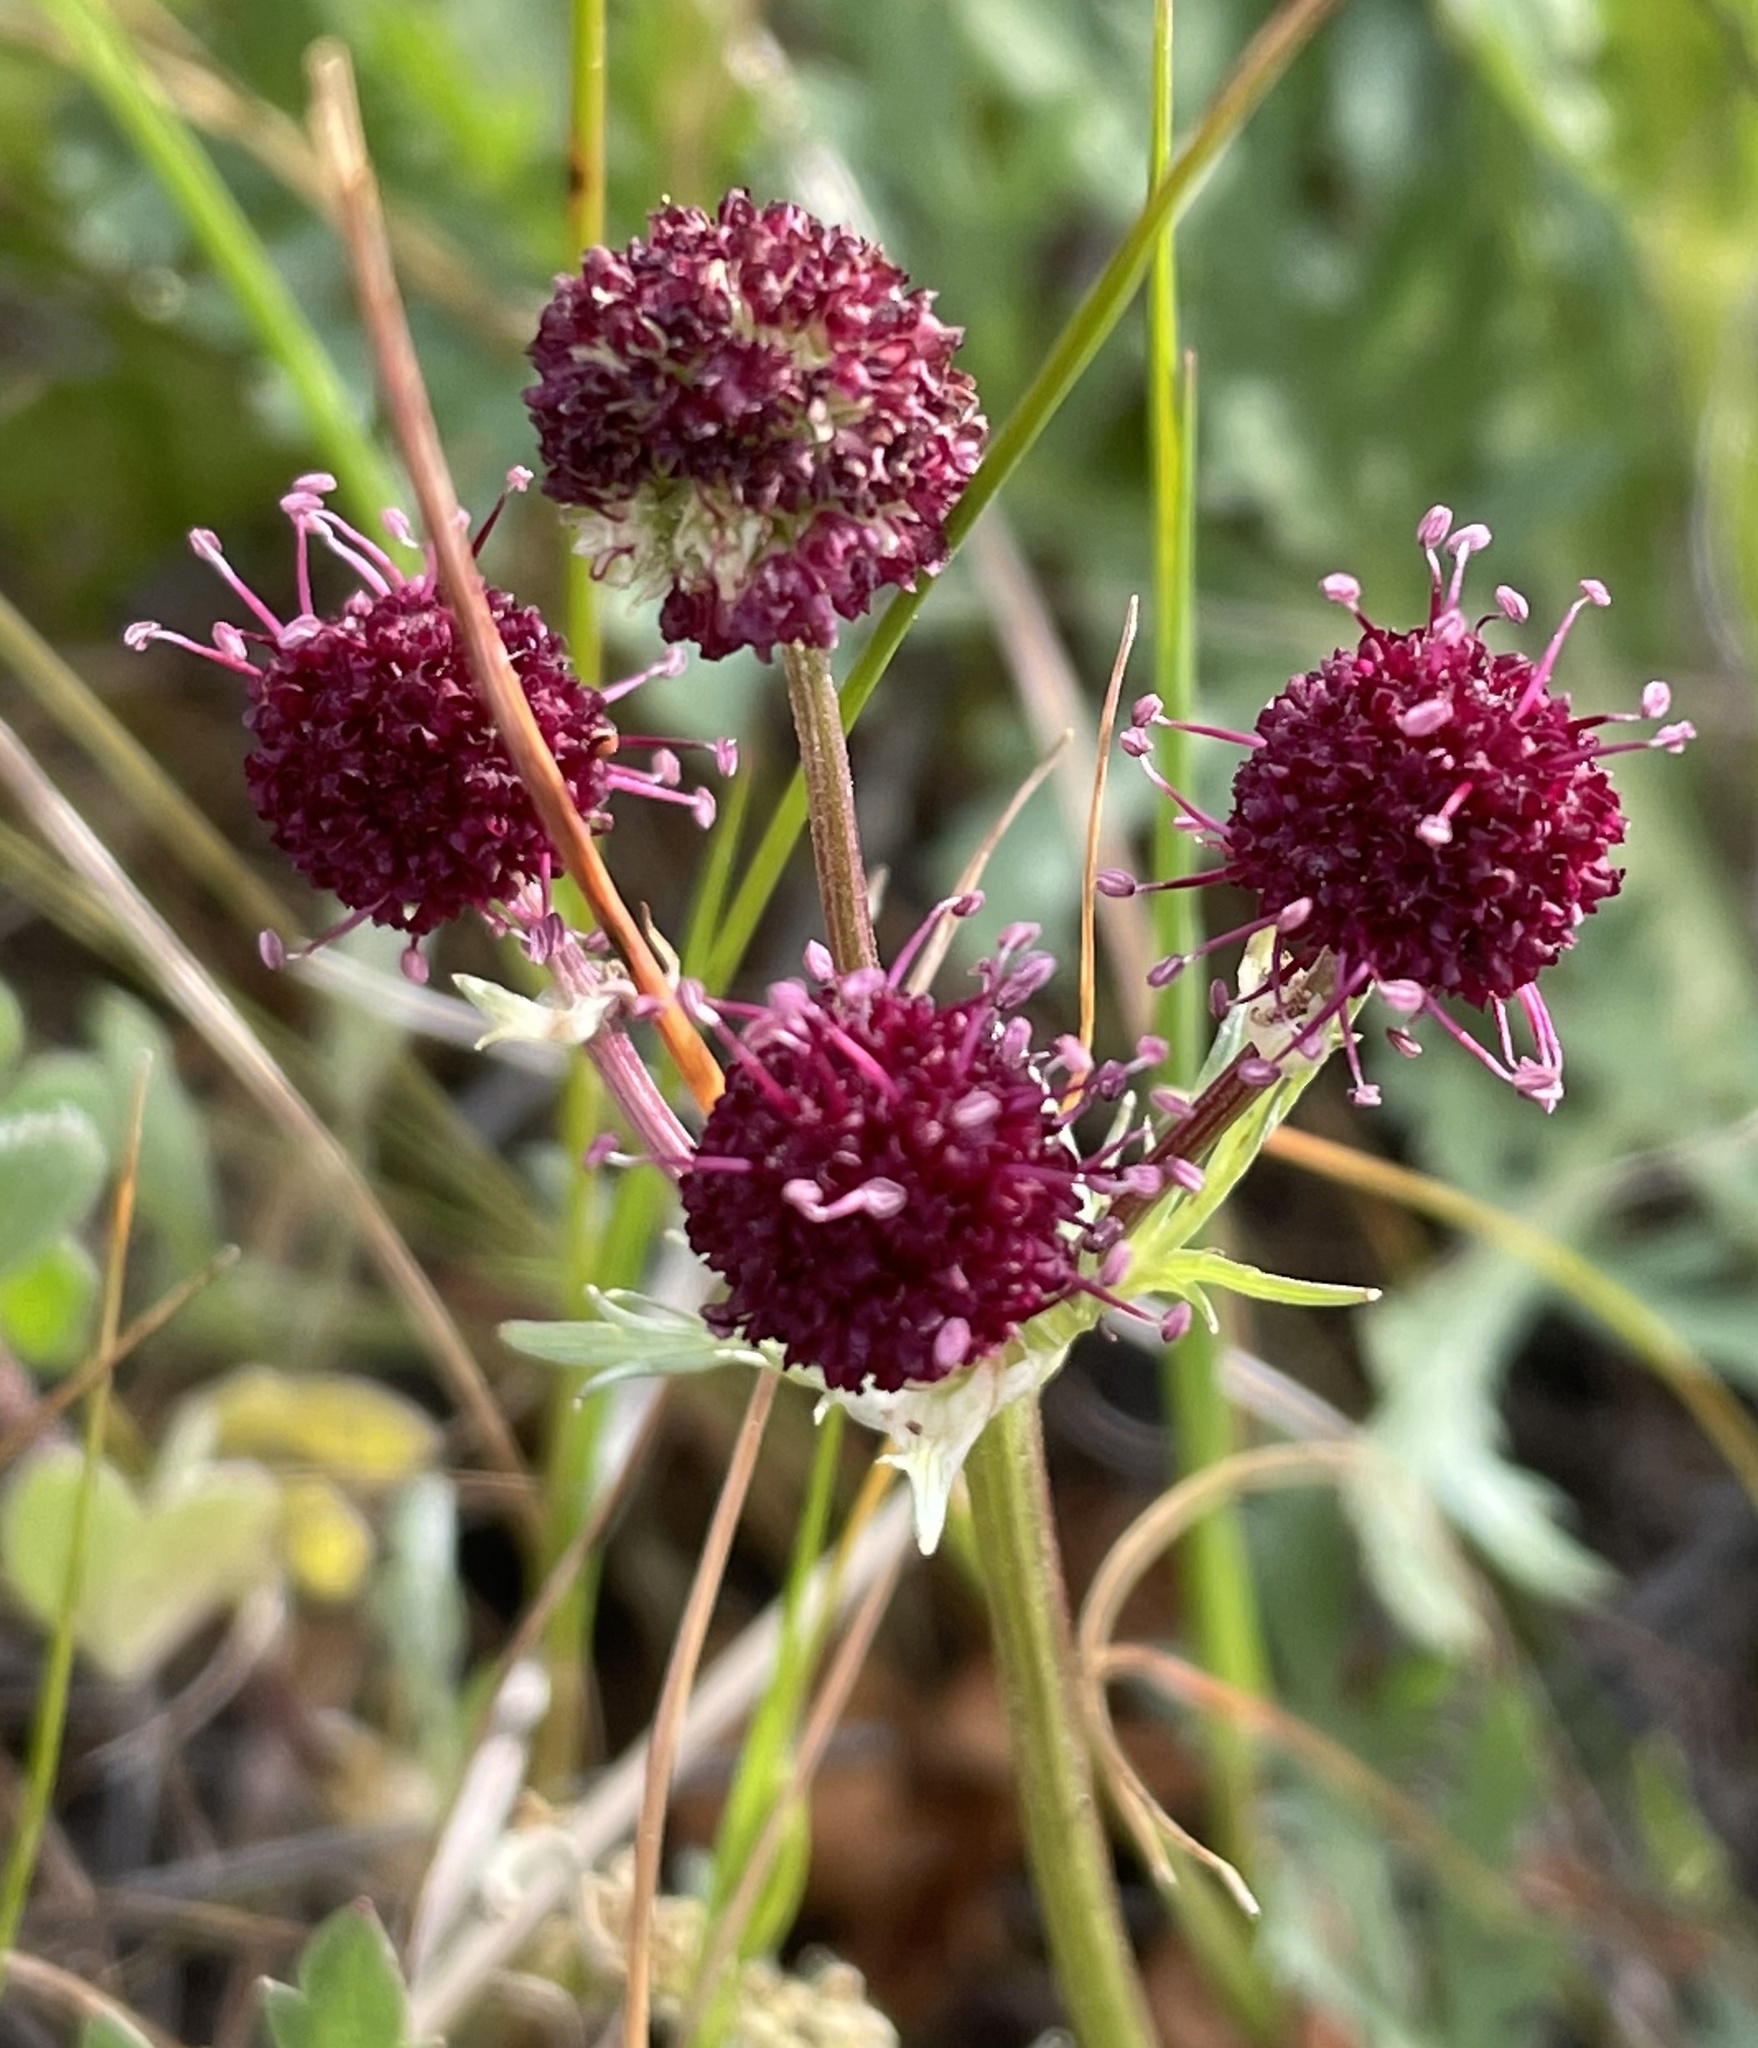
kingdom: Plantae
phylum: Tracheophyta
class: Magnoliopsida
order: Apiales
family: Apiaceae
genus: Sanicula
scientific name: Sanicula bipinnatifida
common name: Shoe-buttons
